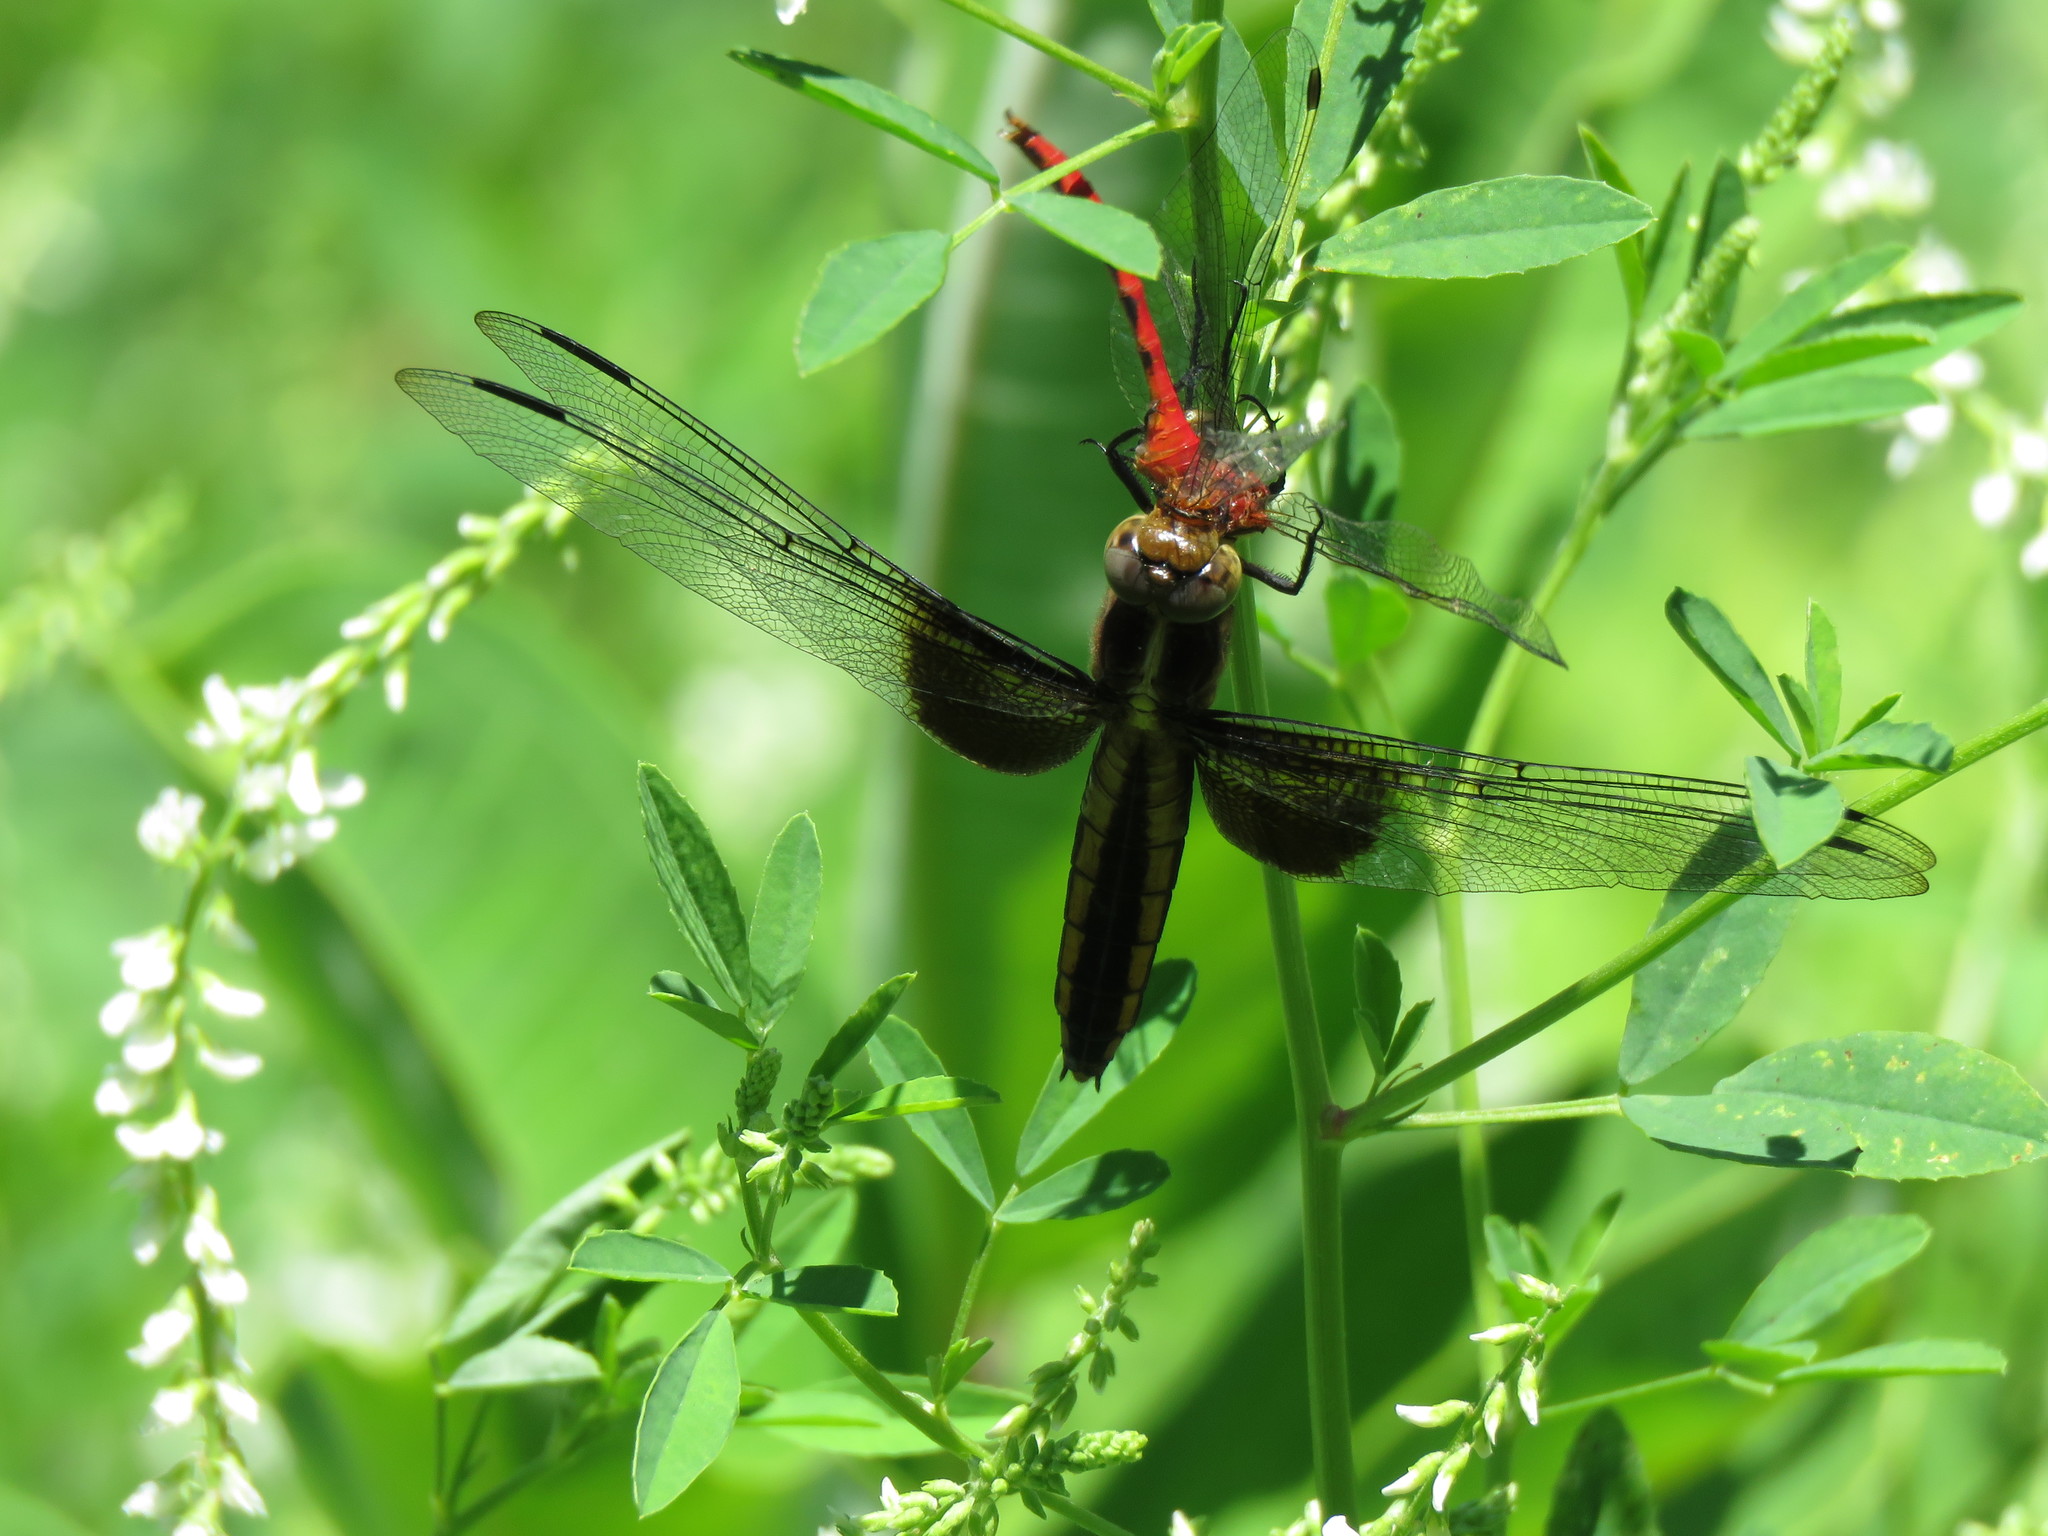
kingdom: Animalia
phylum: Arthropoda
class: Insecta
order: Odonata
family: Libellulidae
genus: Libellula
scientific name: Libellula luctuosa
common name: Widow skimmer
